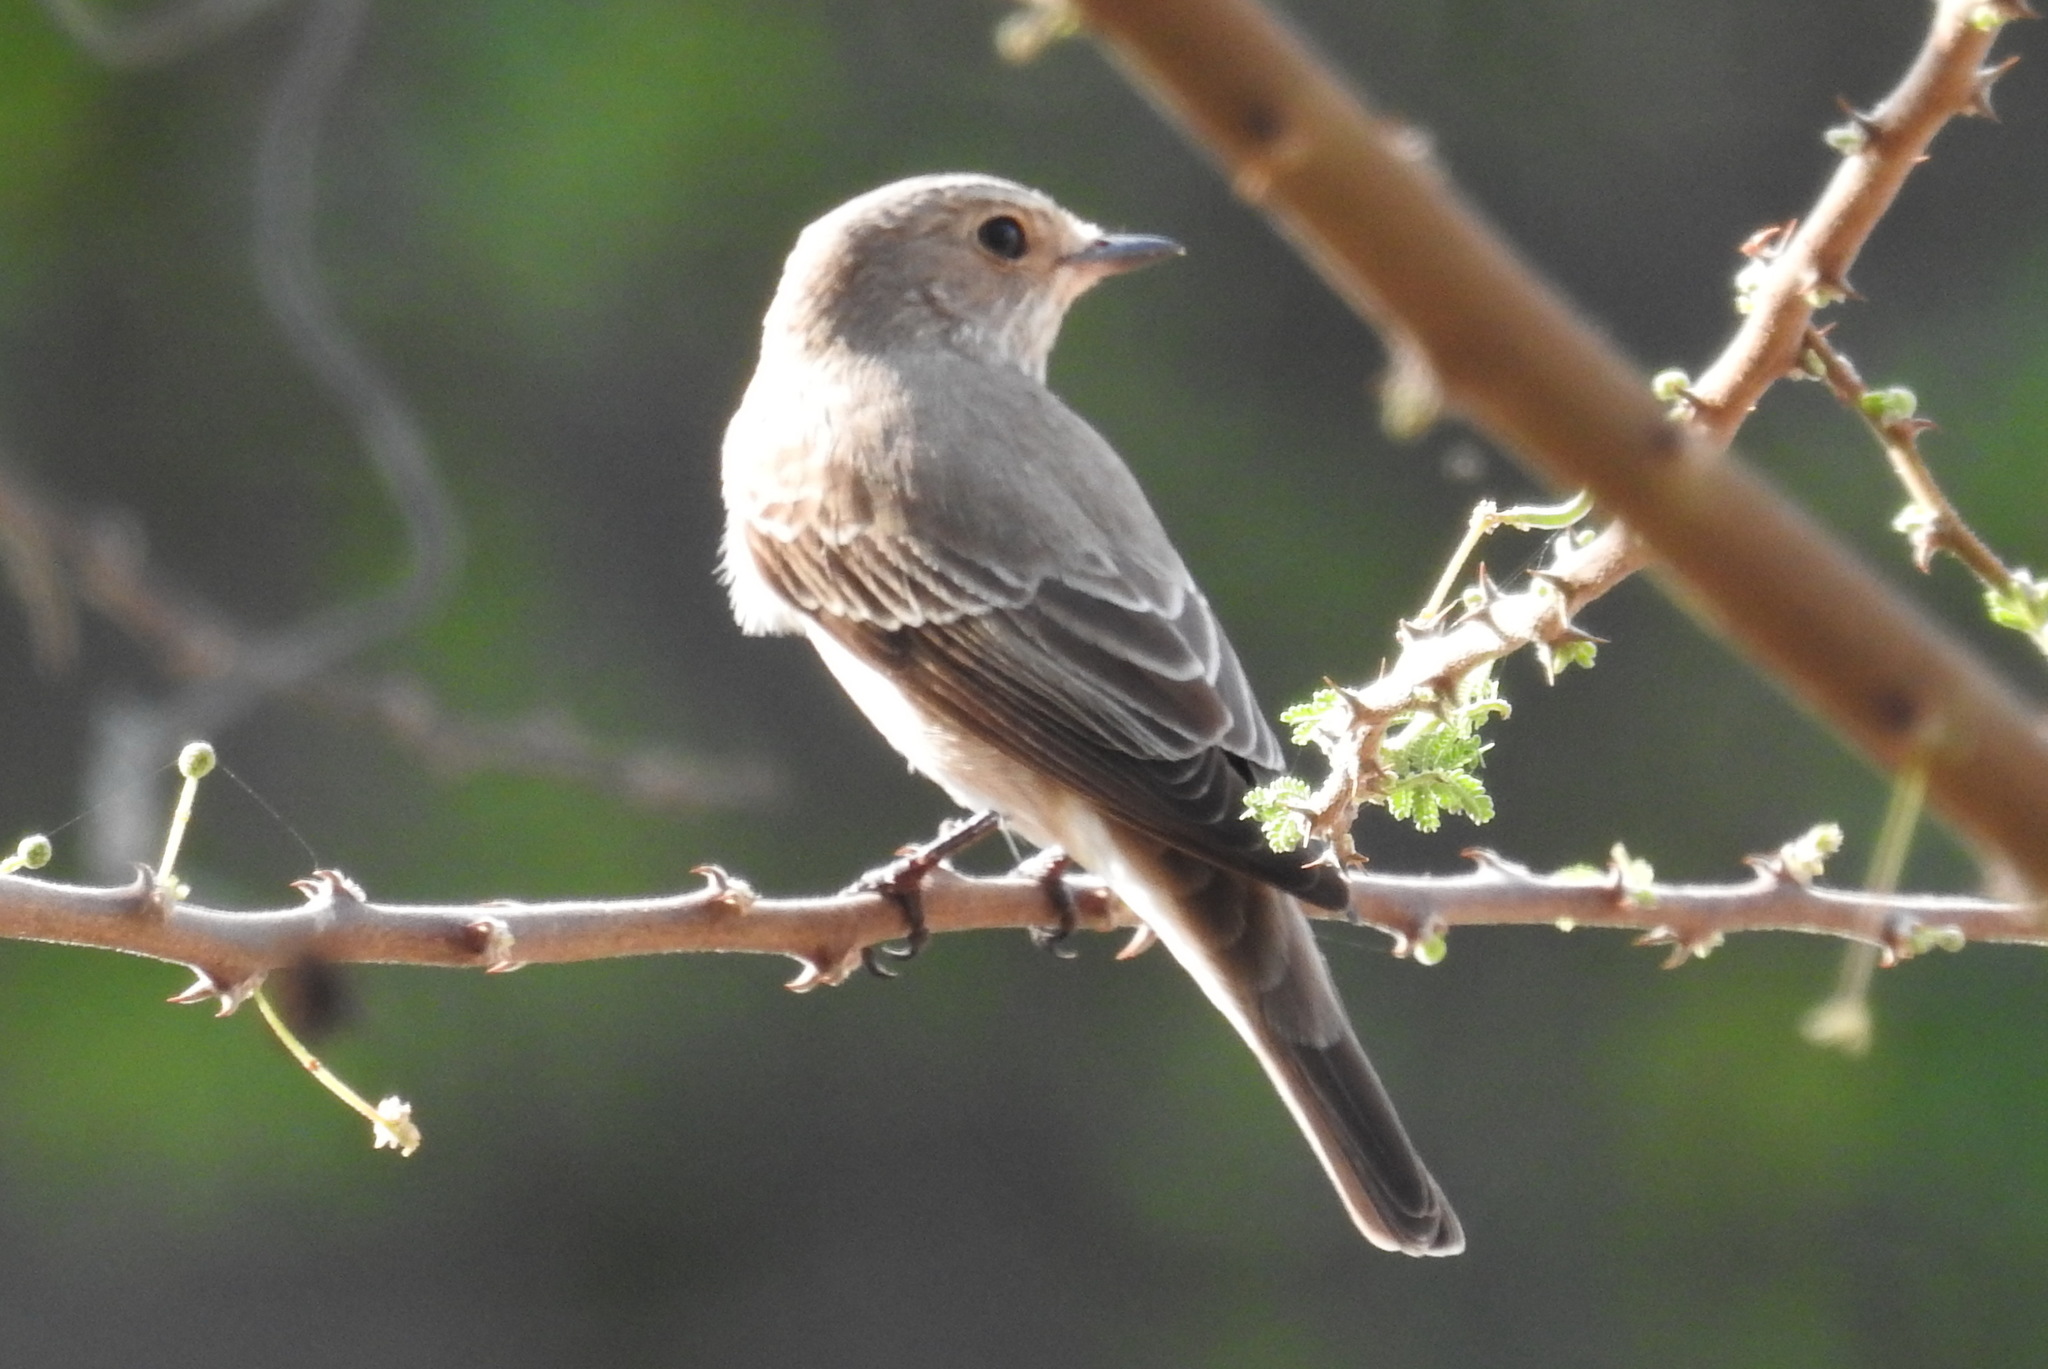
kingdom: Animalia
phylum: Chordata
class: Aves
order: Passeriformes
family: Muscicapidae
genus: Muscicapa
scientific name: Muscicapa striata
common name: Spotted flycatcher
